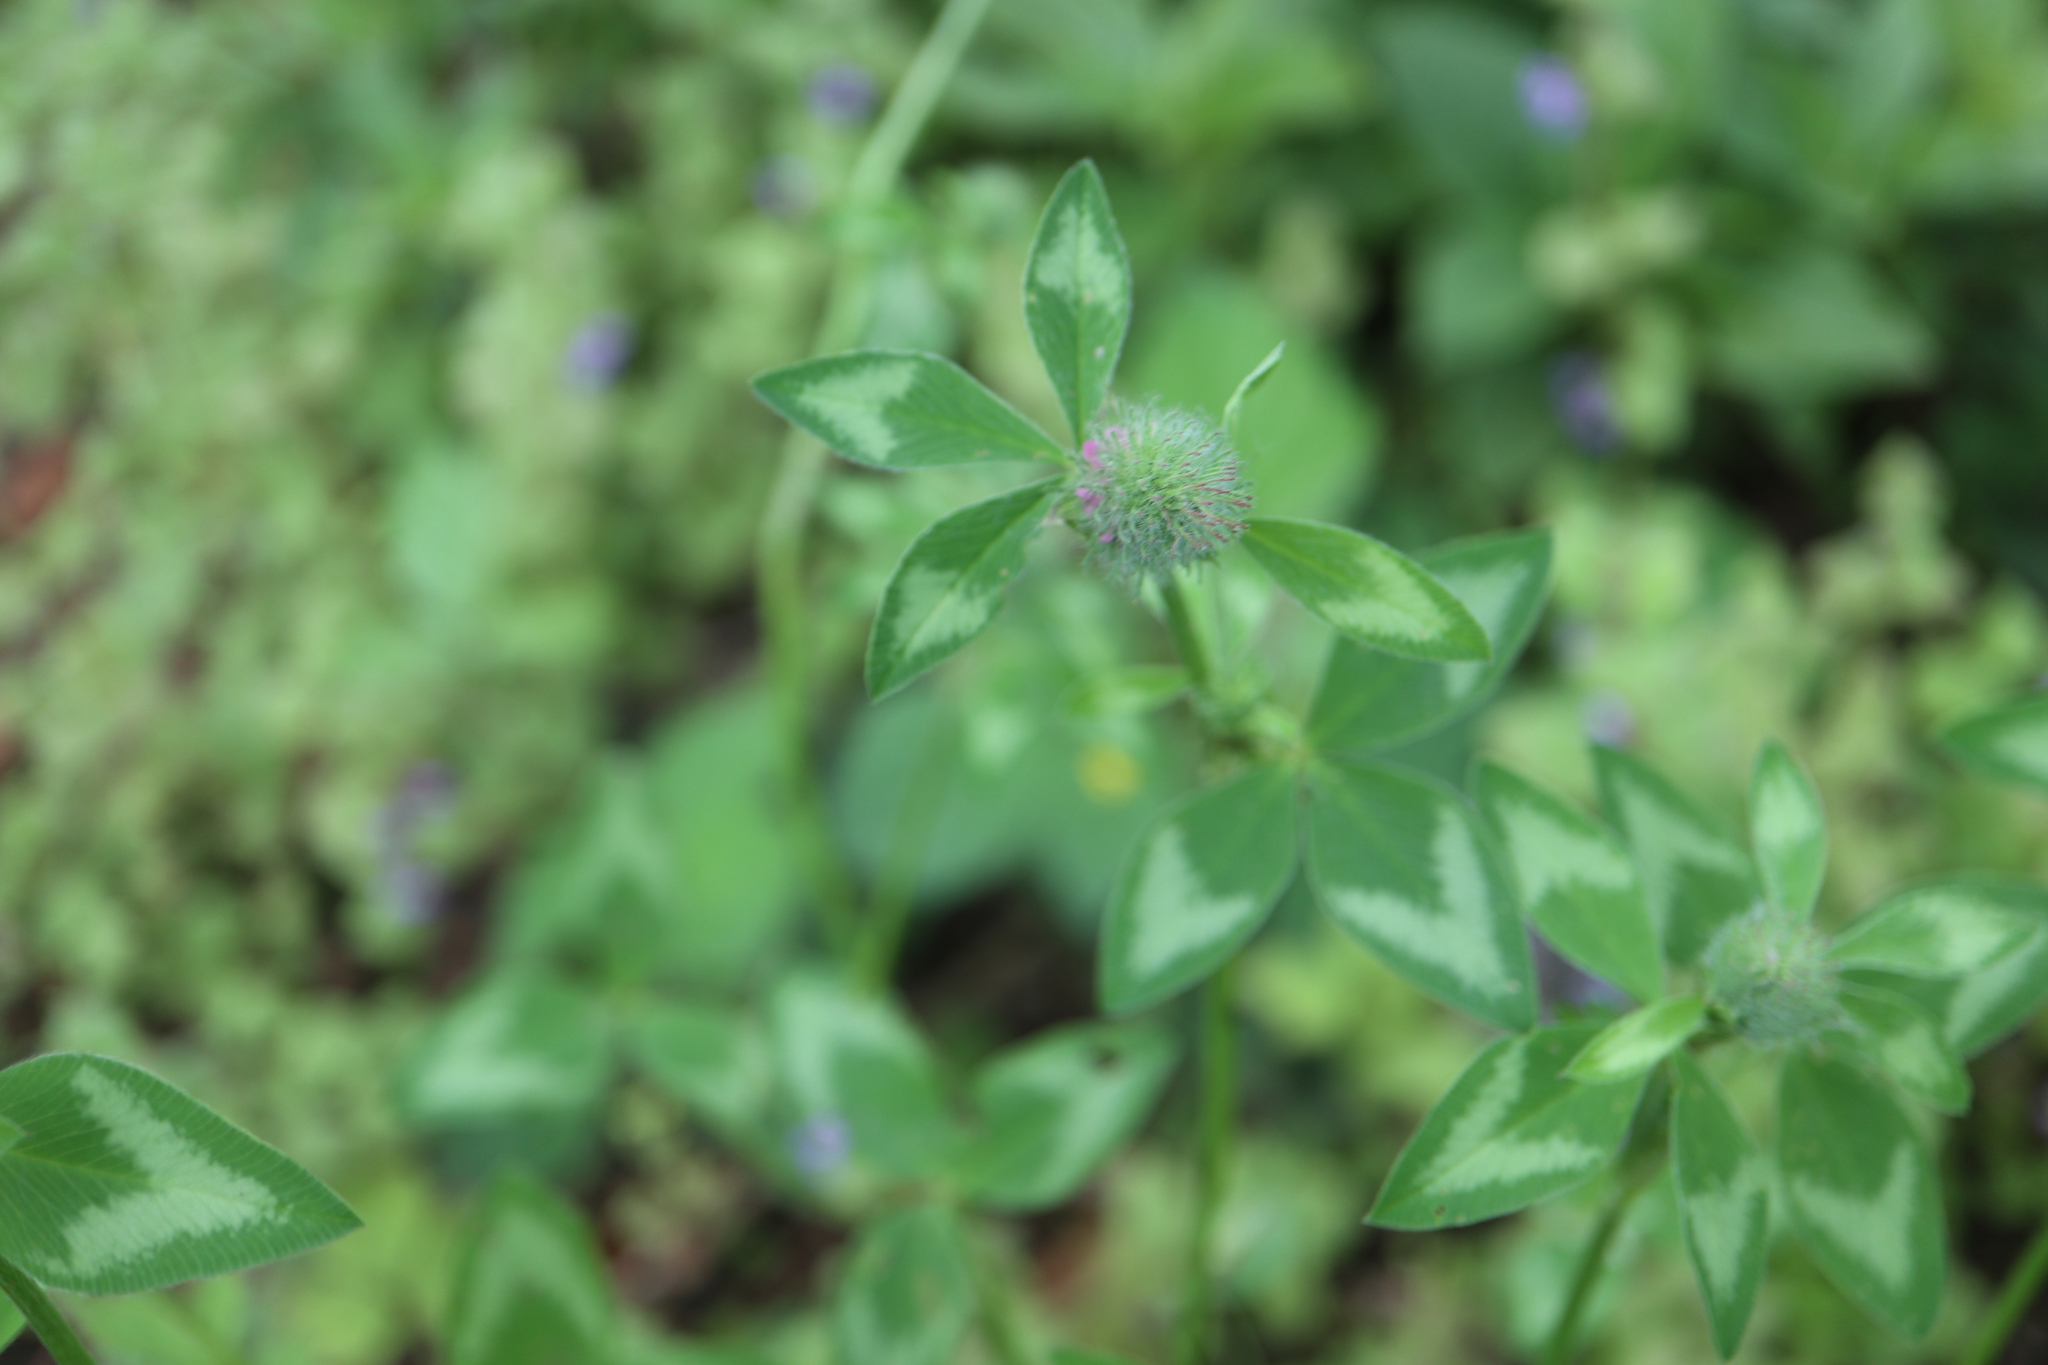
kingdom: Plantae
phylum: Tracheophyta
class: Magnoliopsida
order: Fabales
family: Fabaceae
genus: Trifolium
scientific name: Trifolium pratense
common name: Red clover
